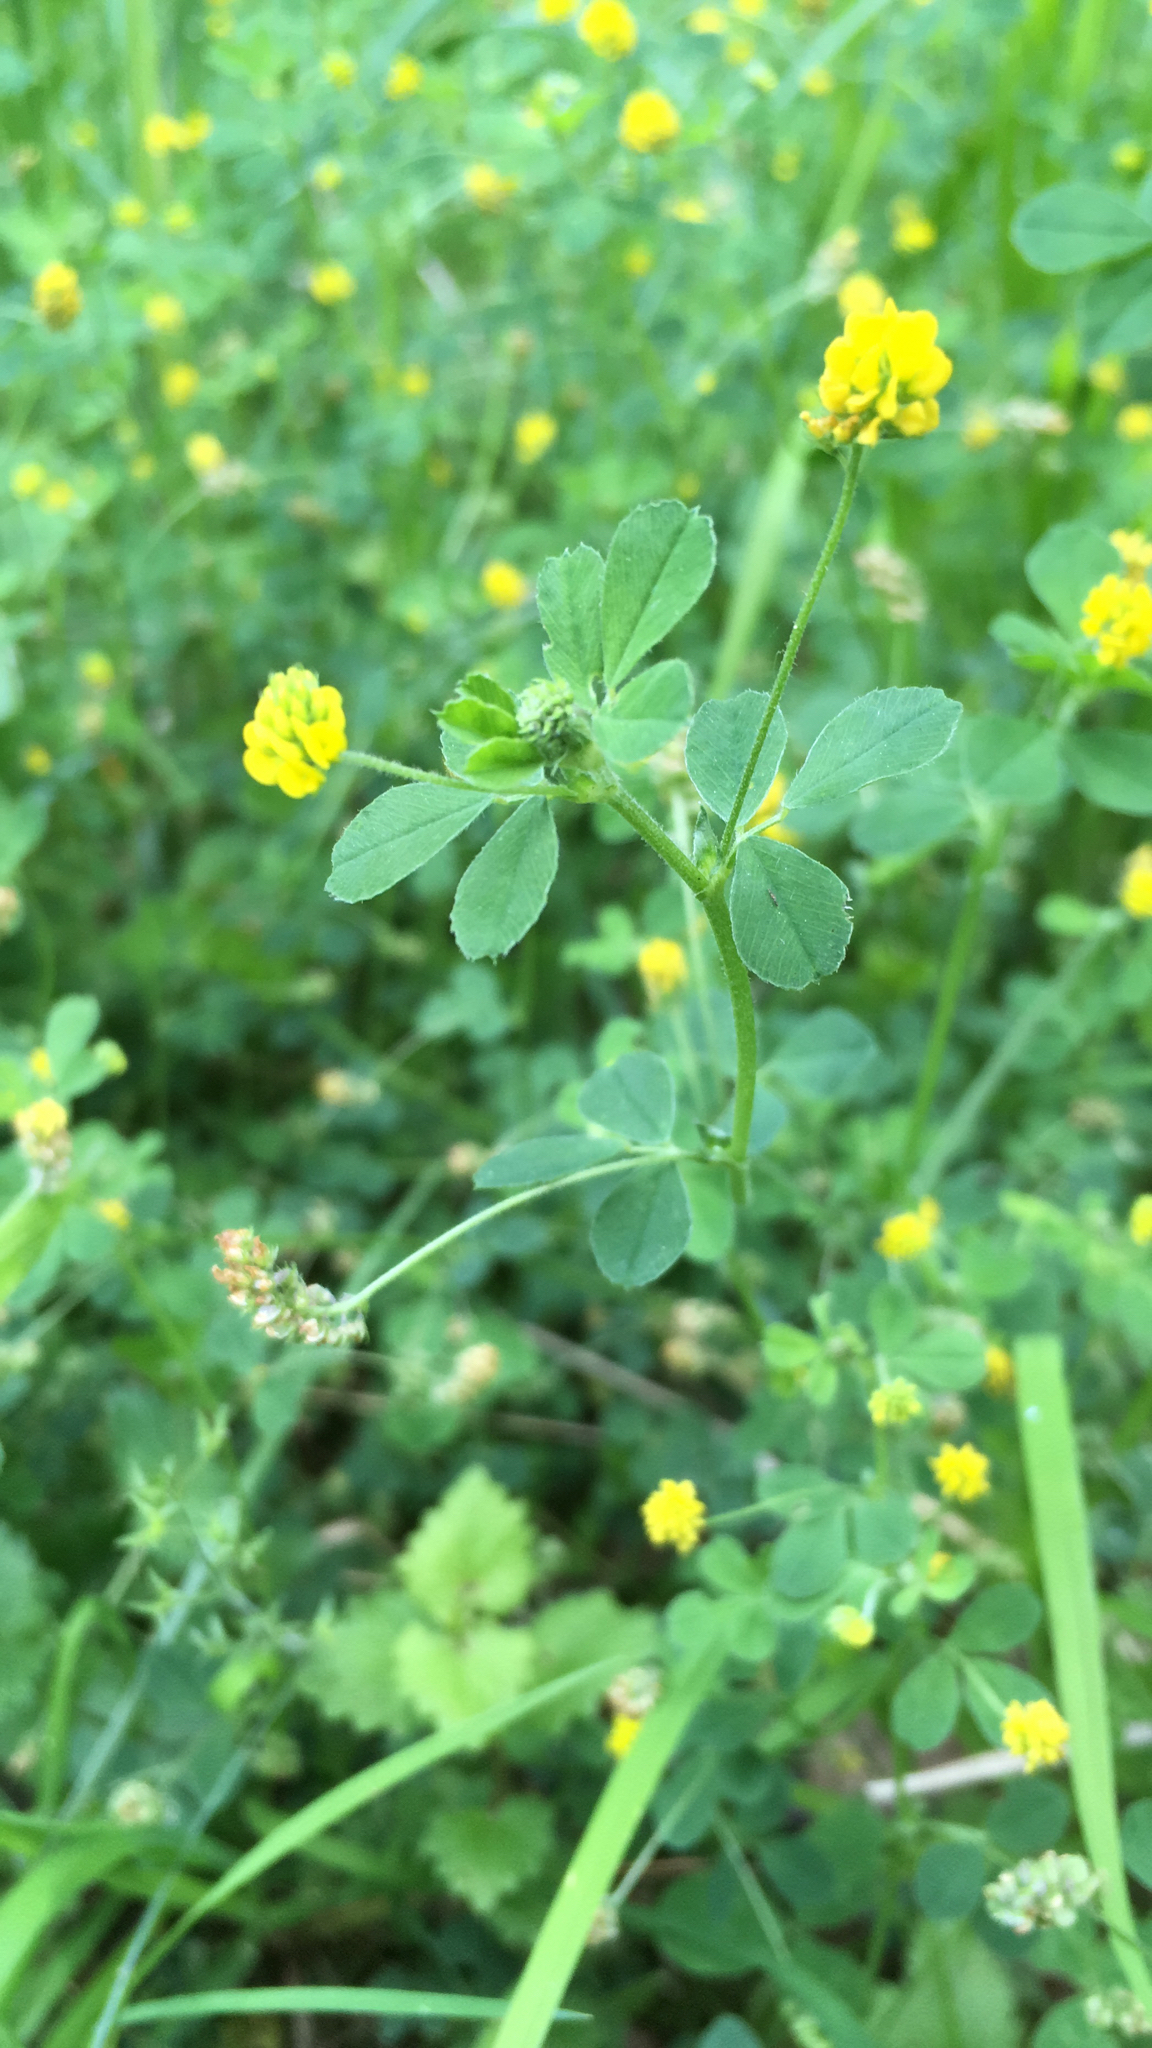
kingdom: Plantae
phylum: Tracheophyta
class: Magnoliopsida
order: Fabales
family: Fabaceae
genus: Medicago
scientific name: Medicago lupulina
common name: Black medick
